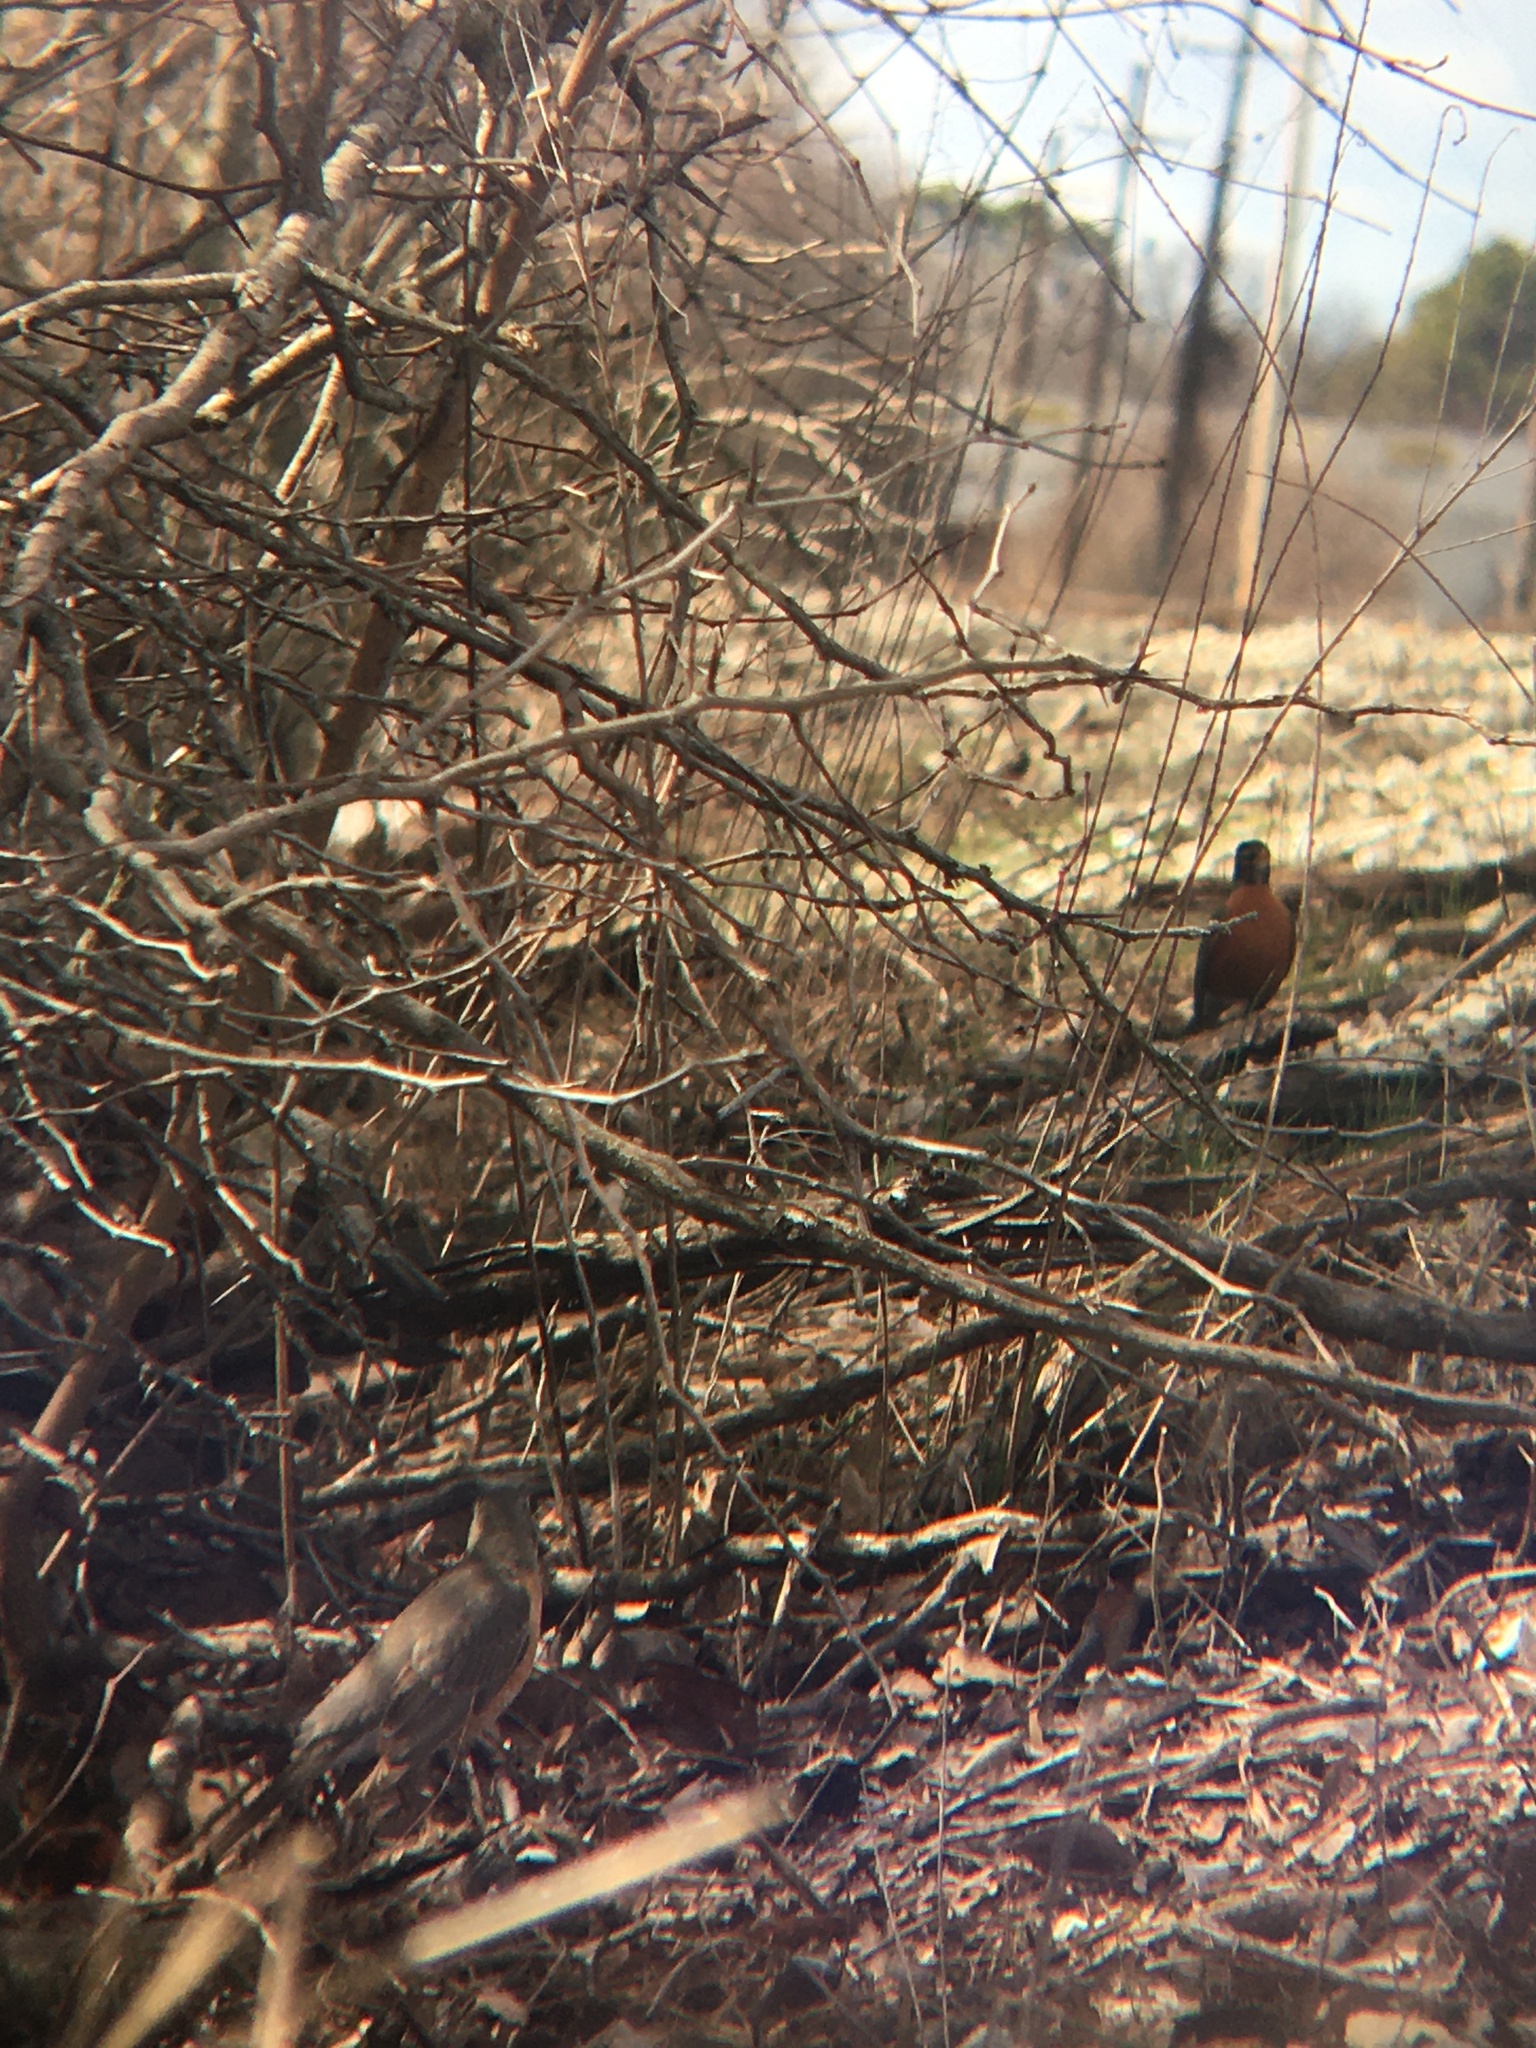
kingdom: Animalia
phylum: Chordata
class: Aves
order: Passeriformes
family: Turdidae
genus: Turdus
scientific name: Turdus migratorius
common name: American robin
